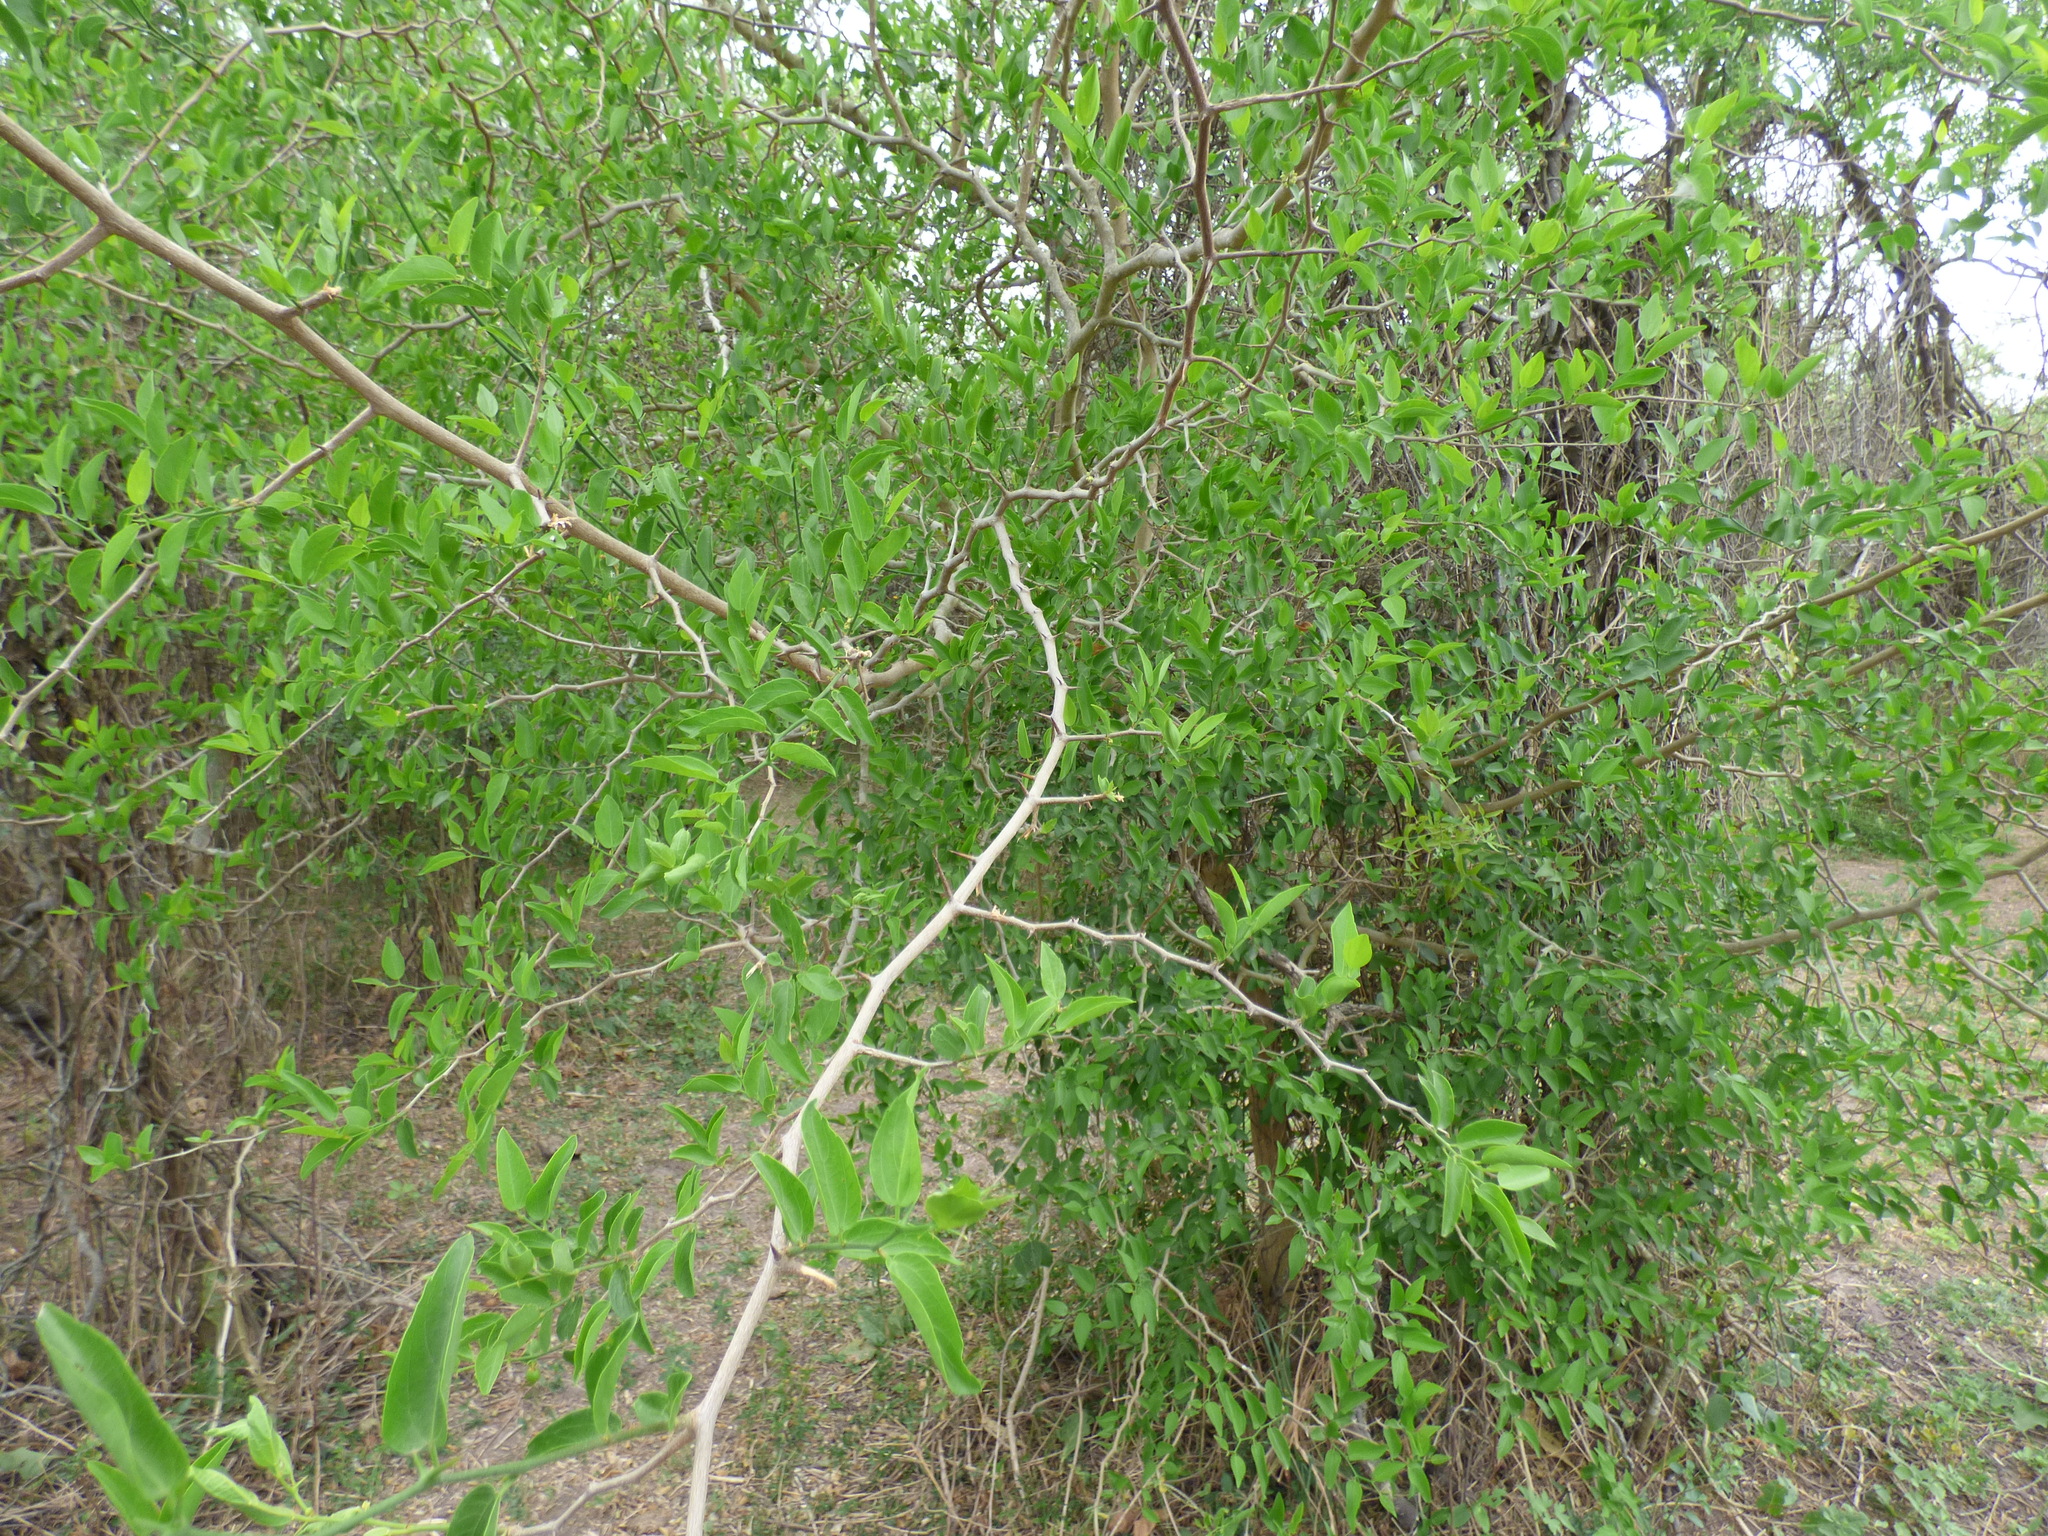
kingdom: Plantae
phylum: Tracheophyta
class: Magnoliopsida
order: Rosales
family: Cannabaceae
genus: Celtis
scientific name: Celtis tala
